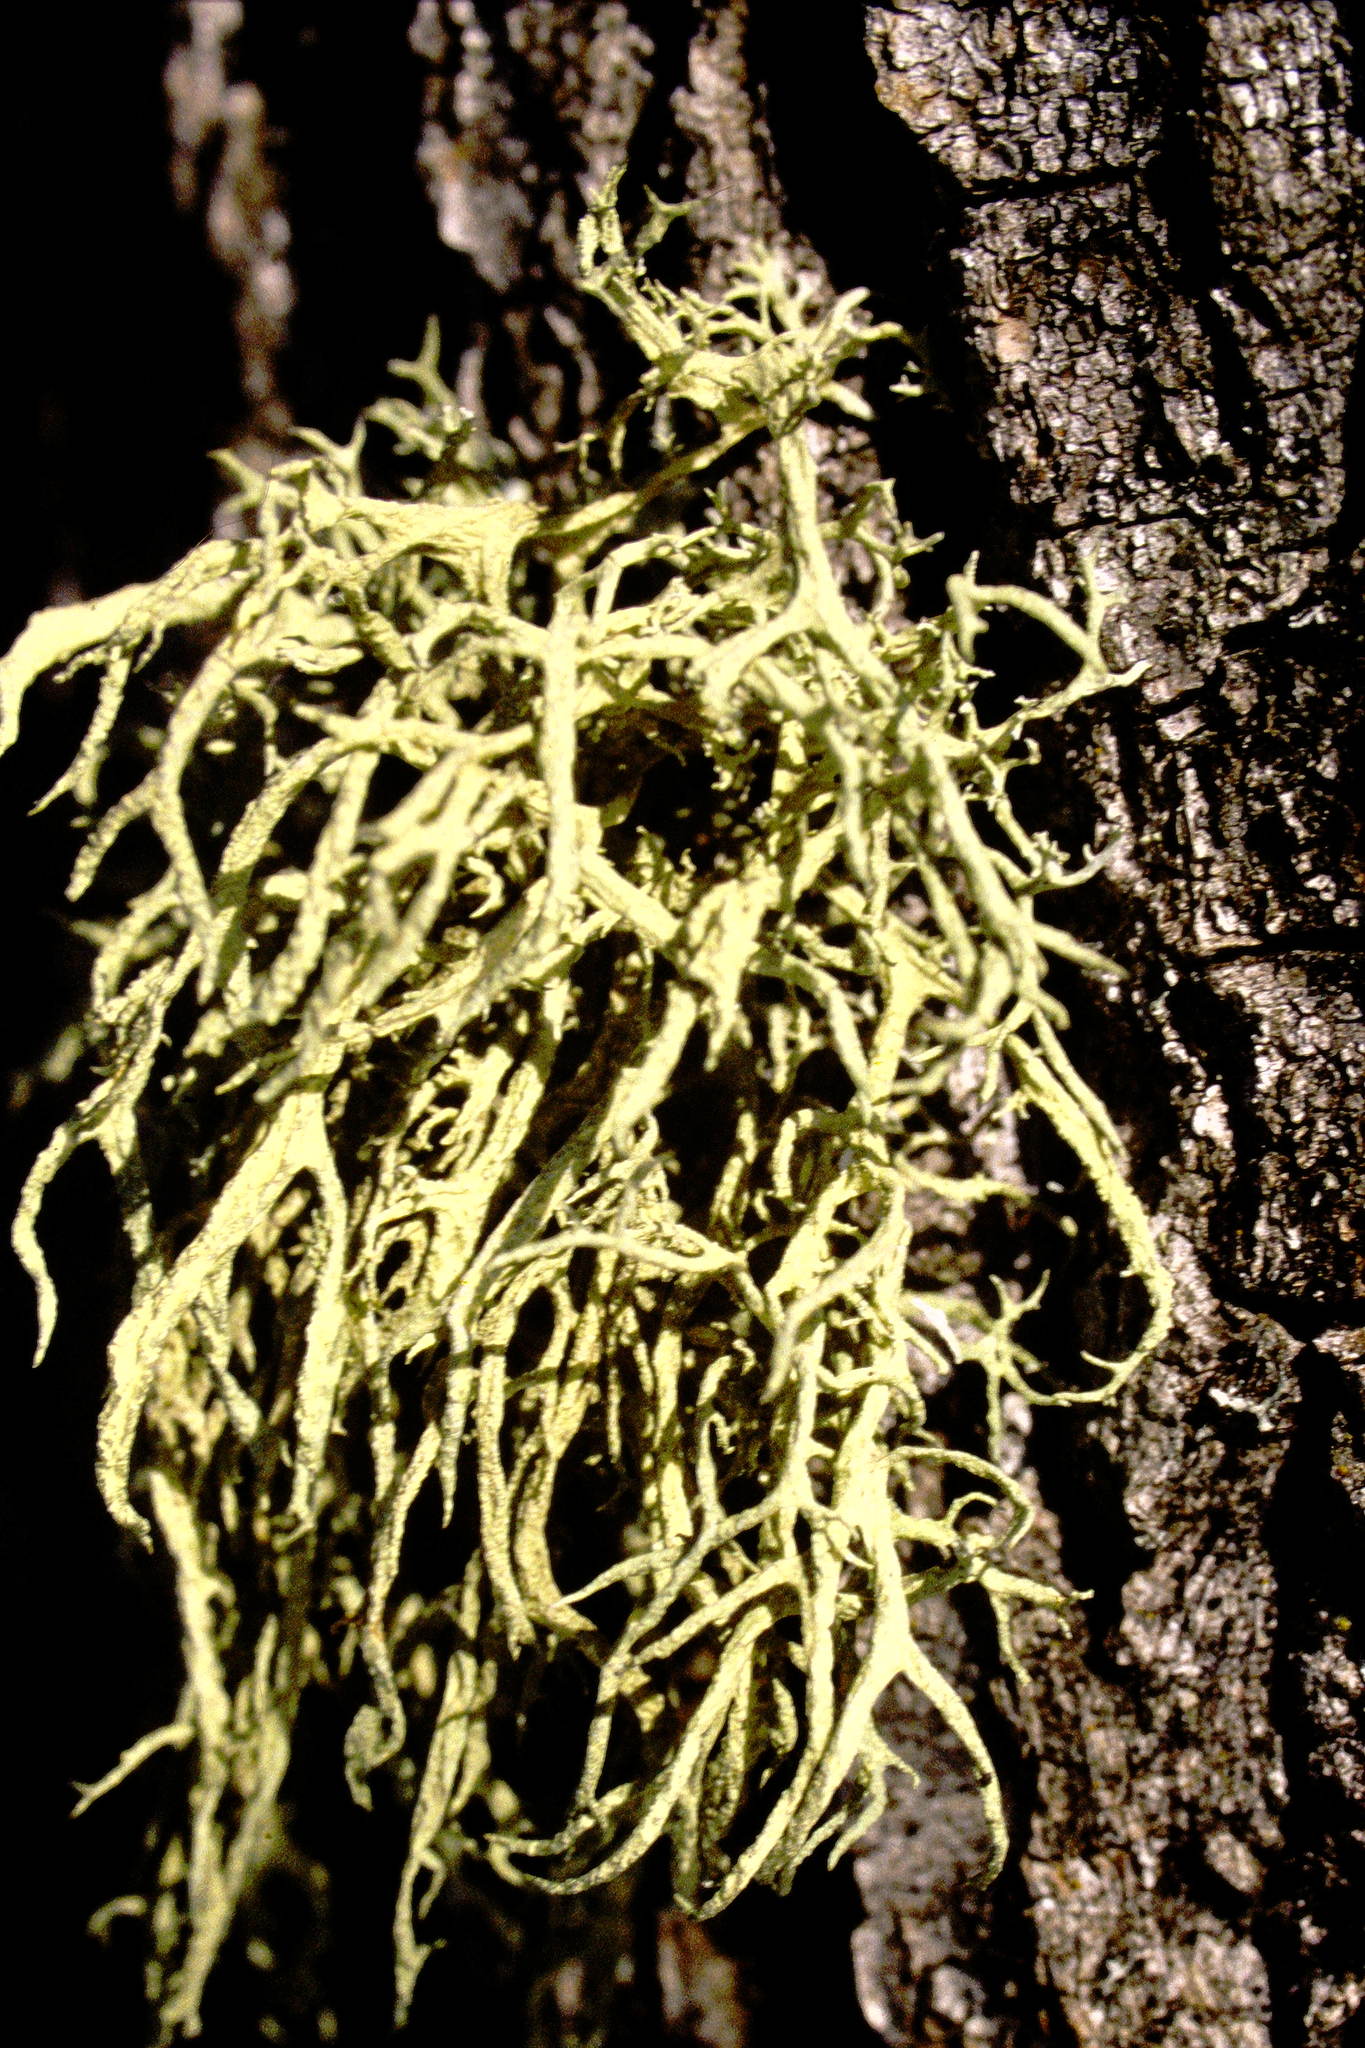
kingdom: Fungi
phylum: Ascomycota
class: Lecanoromycetes
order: Lecanorales
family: Parmeliaceae
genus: Evernia
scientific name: Evernia mesomorpha
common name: Boreal oak moss lichen
